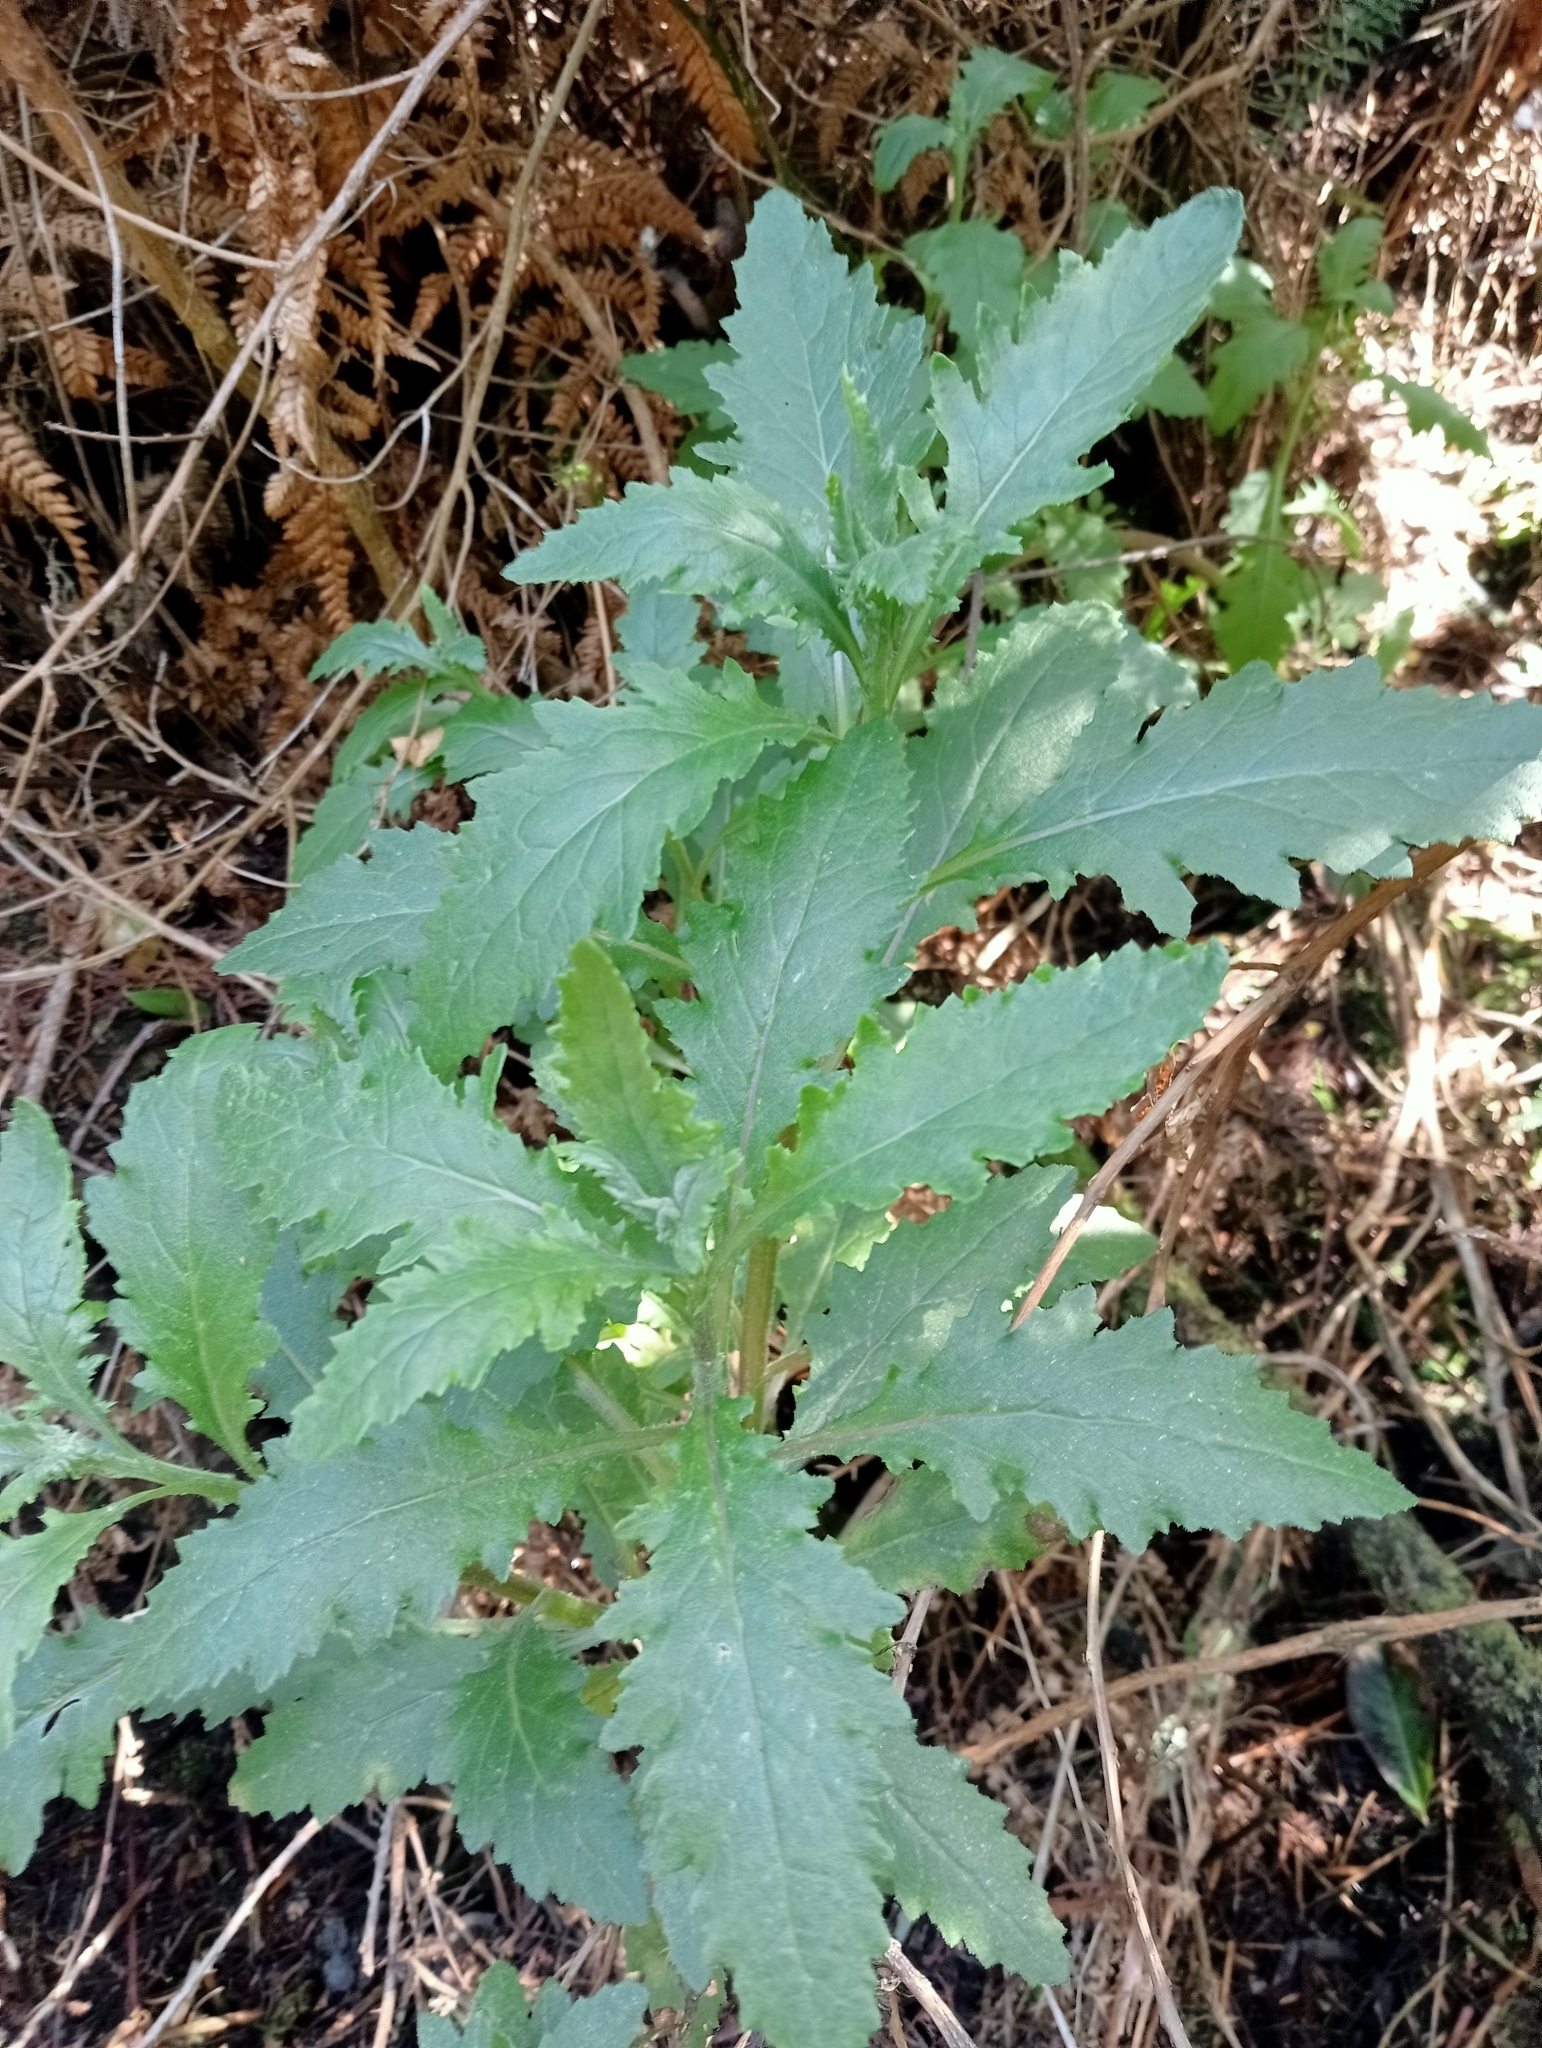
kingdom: Plantae
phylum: Tracheophyta
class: Magnoliopsida
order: Asterales
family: Asteraceae
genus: Senecio
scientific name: Senecio biserratus
